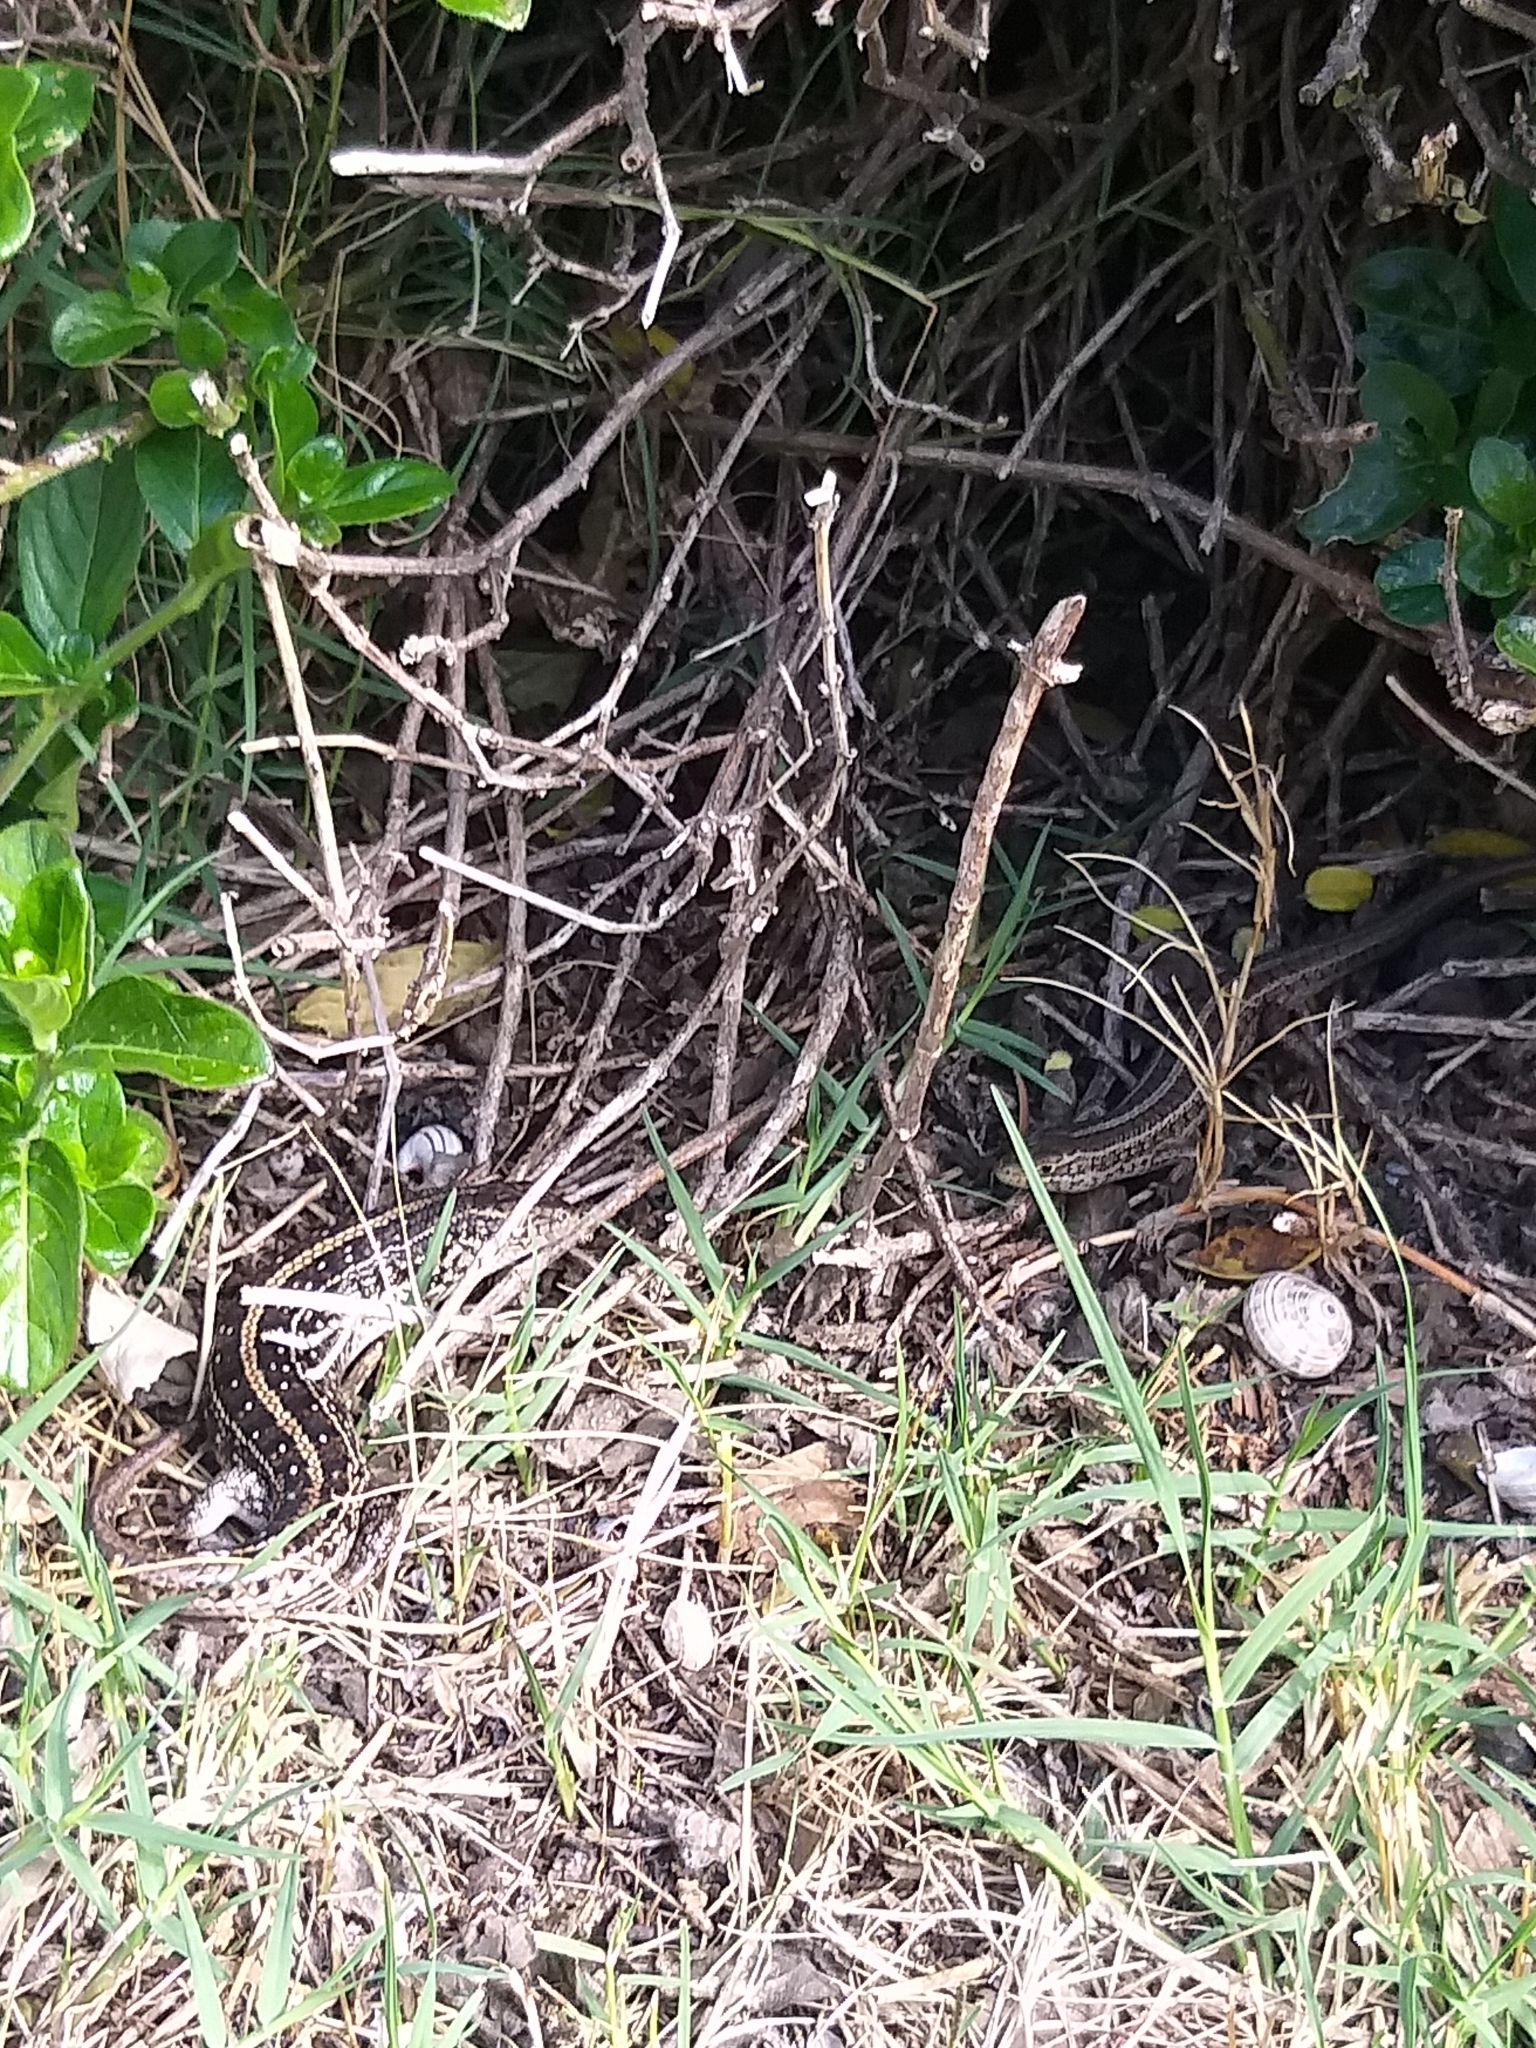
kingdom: Animalia
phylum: Chordata
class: Squamata
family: Scincidae
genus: Trachylepis
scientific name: Trachylepis capensis
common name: Cape skink
